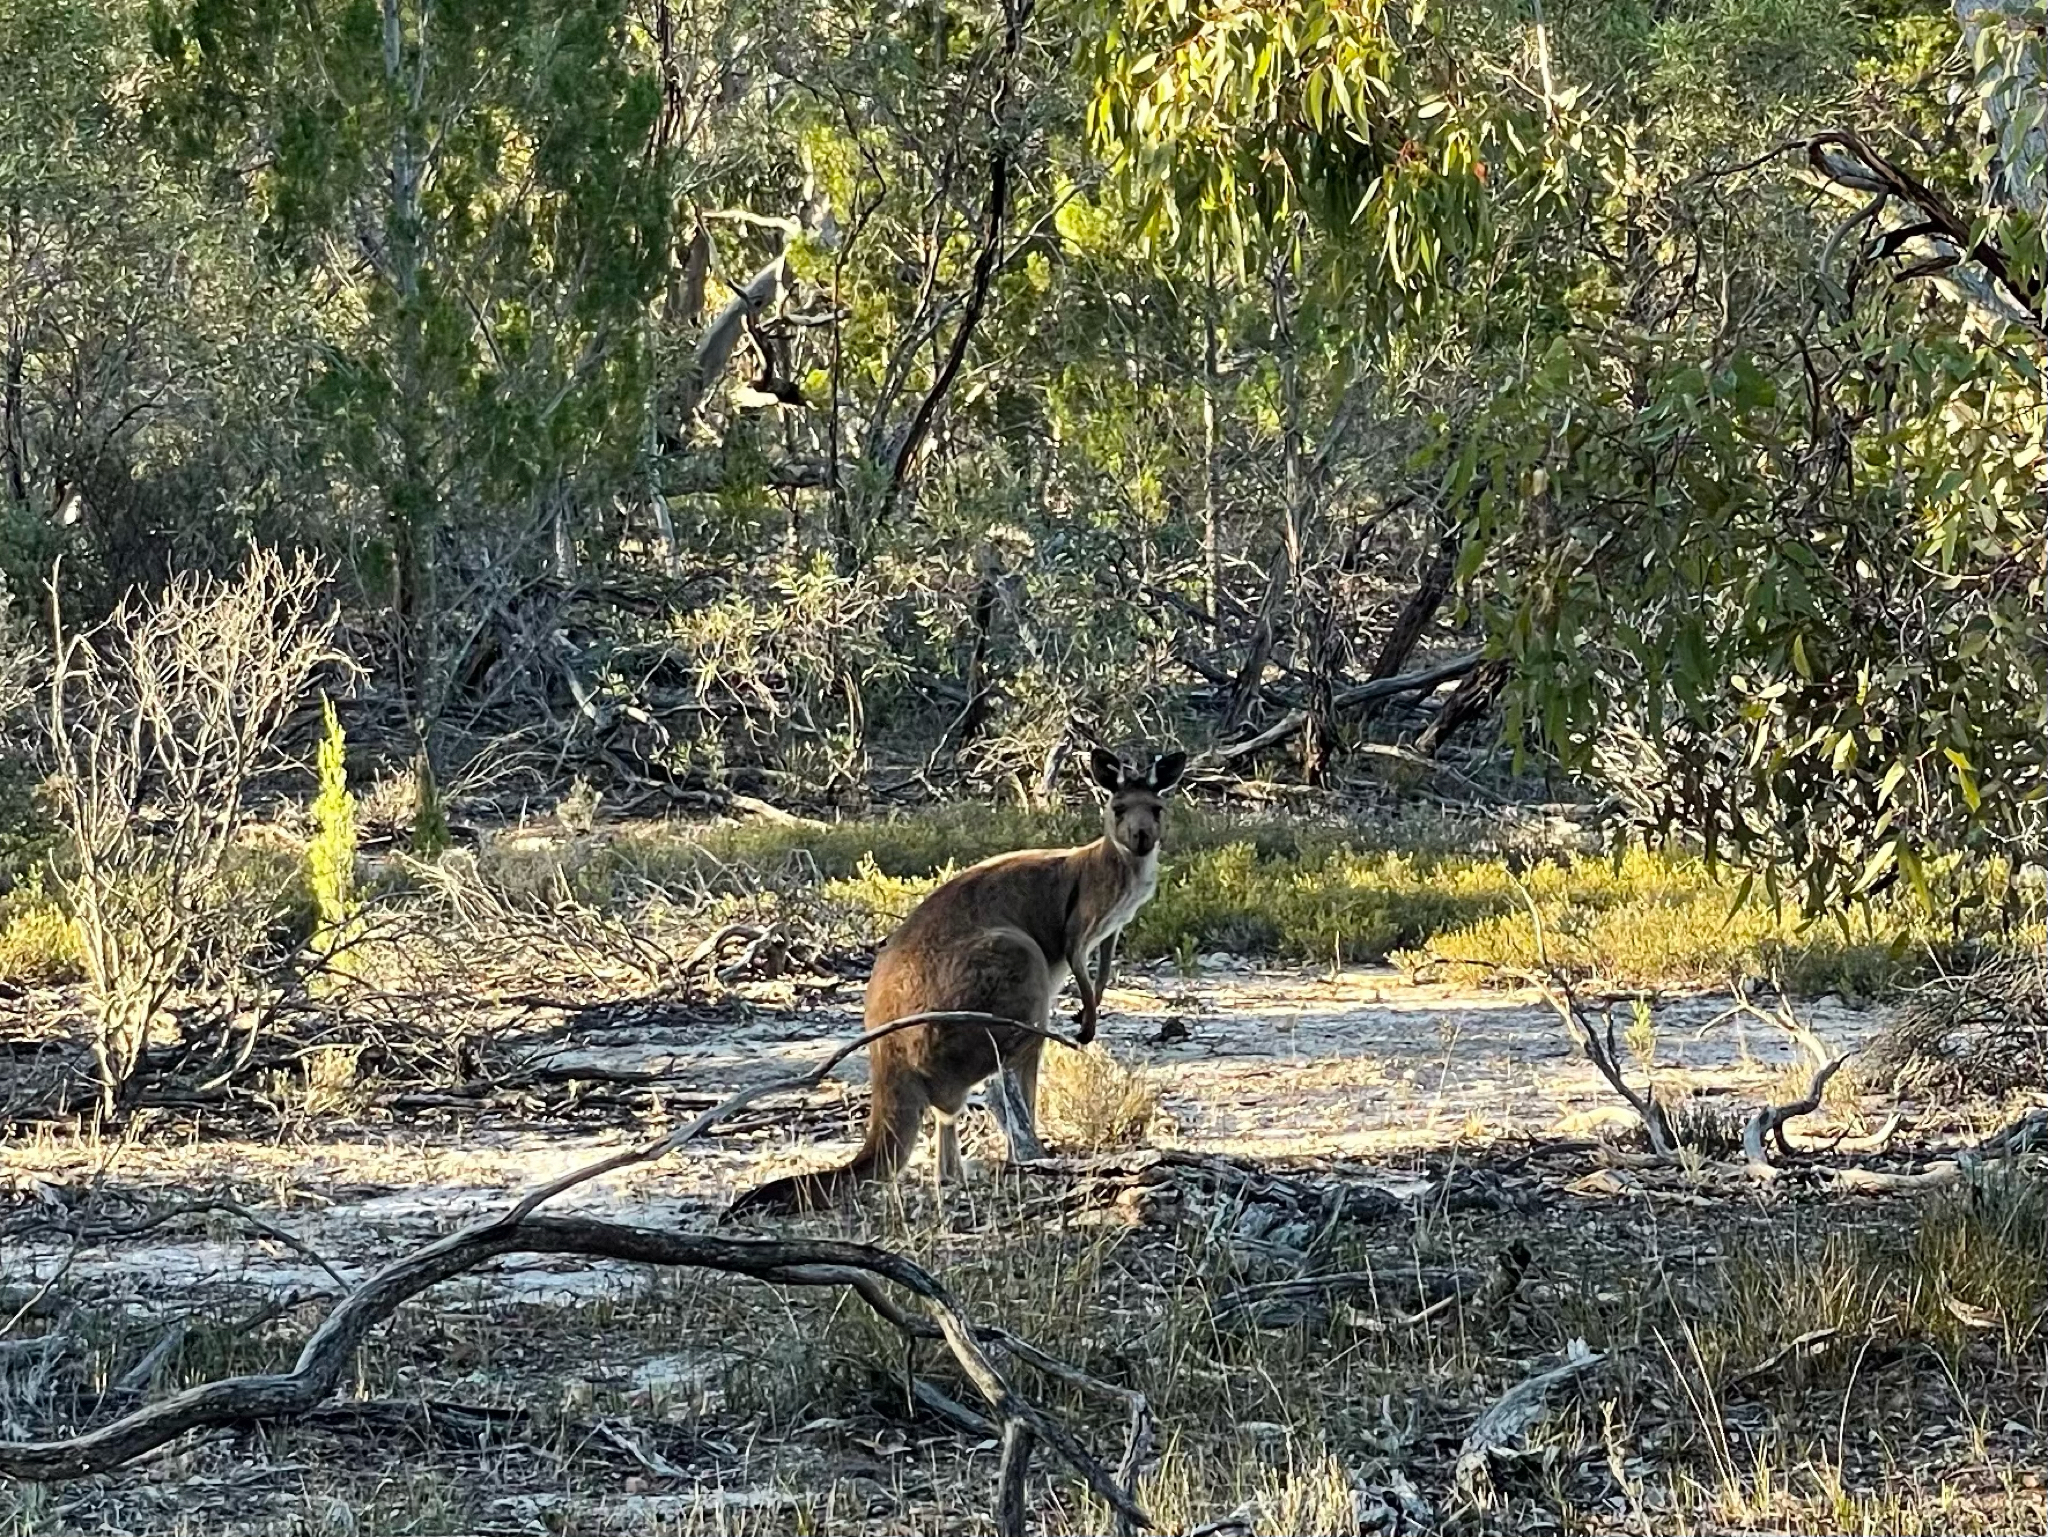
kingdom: Animalia
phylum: Chordata
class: Mammalia
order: Diprotodontia
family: Macropodidae
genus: Macropus
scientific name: Macropus fuliginosus
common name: Western grey kangaroo
